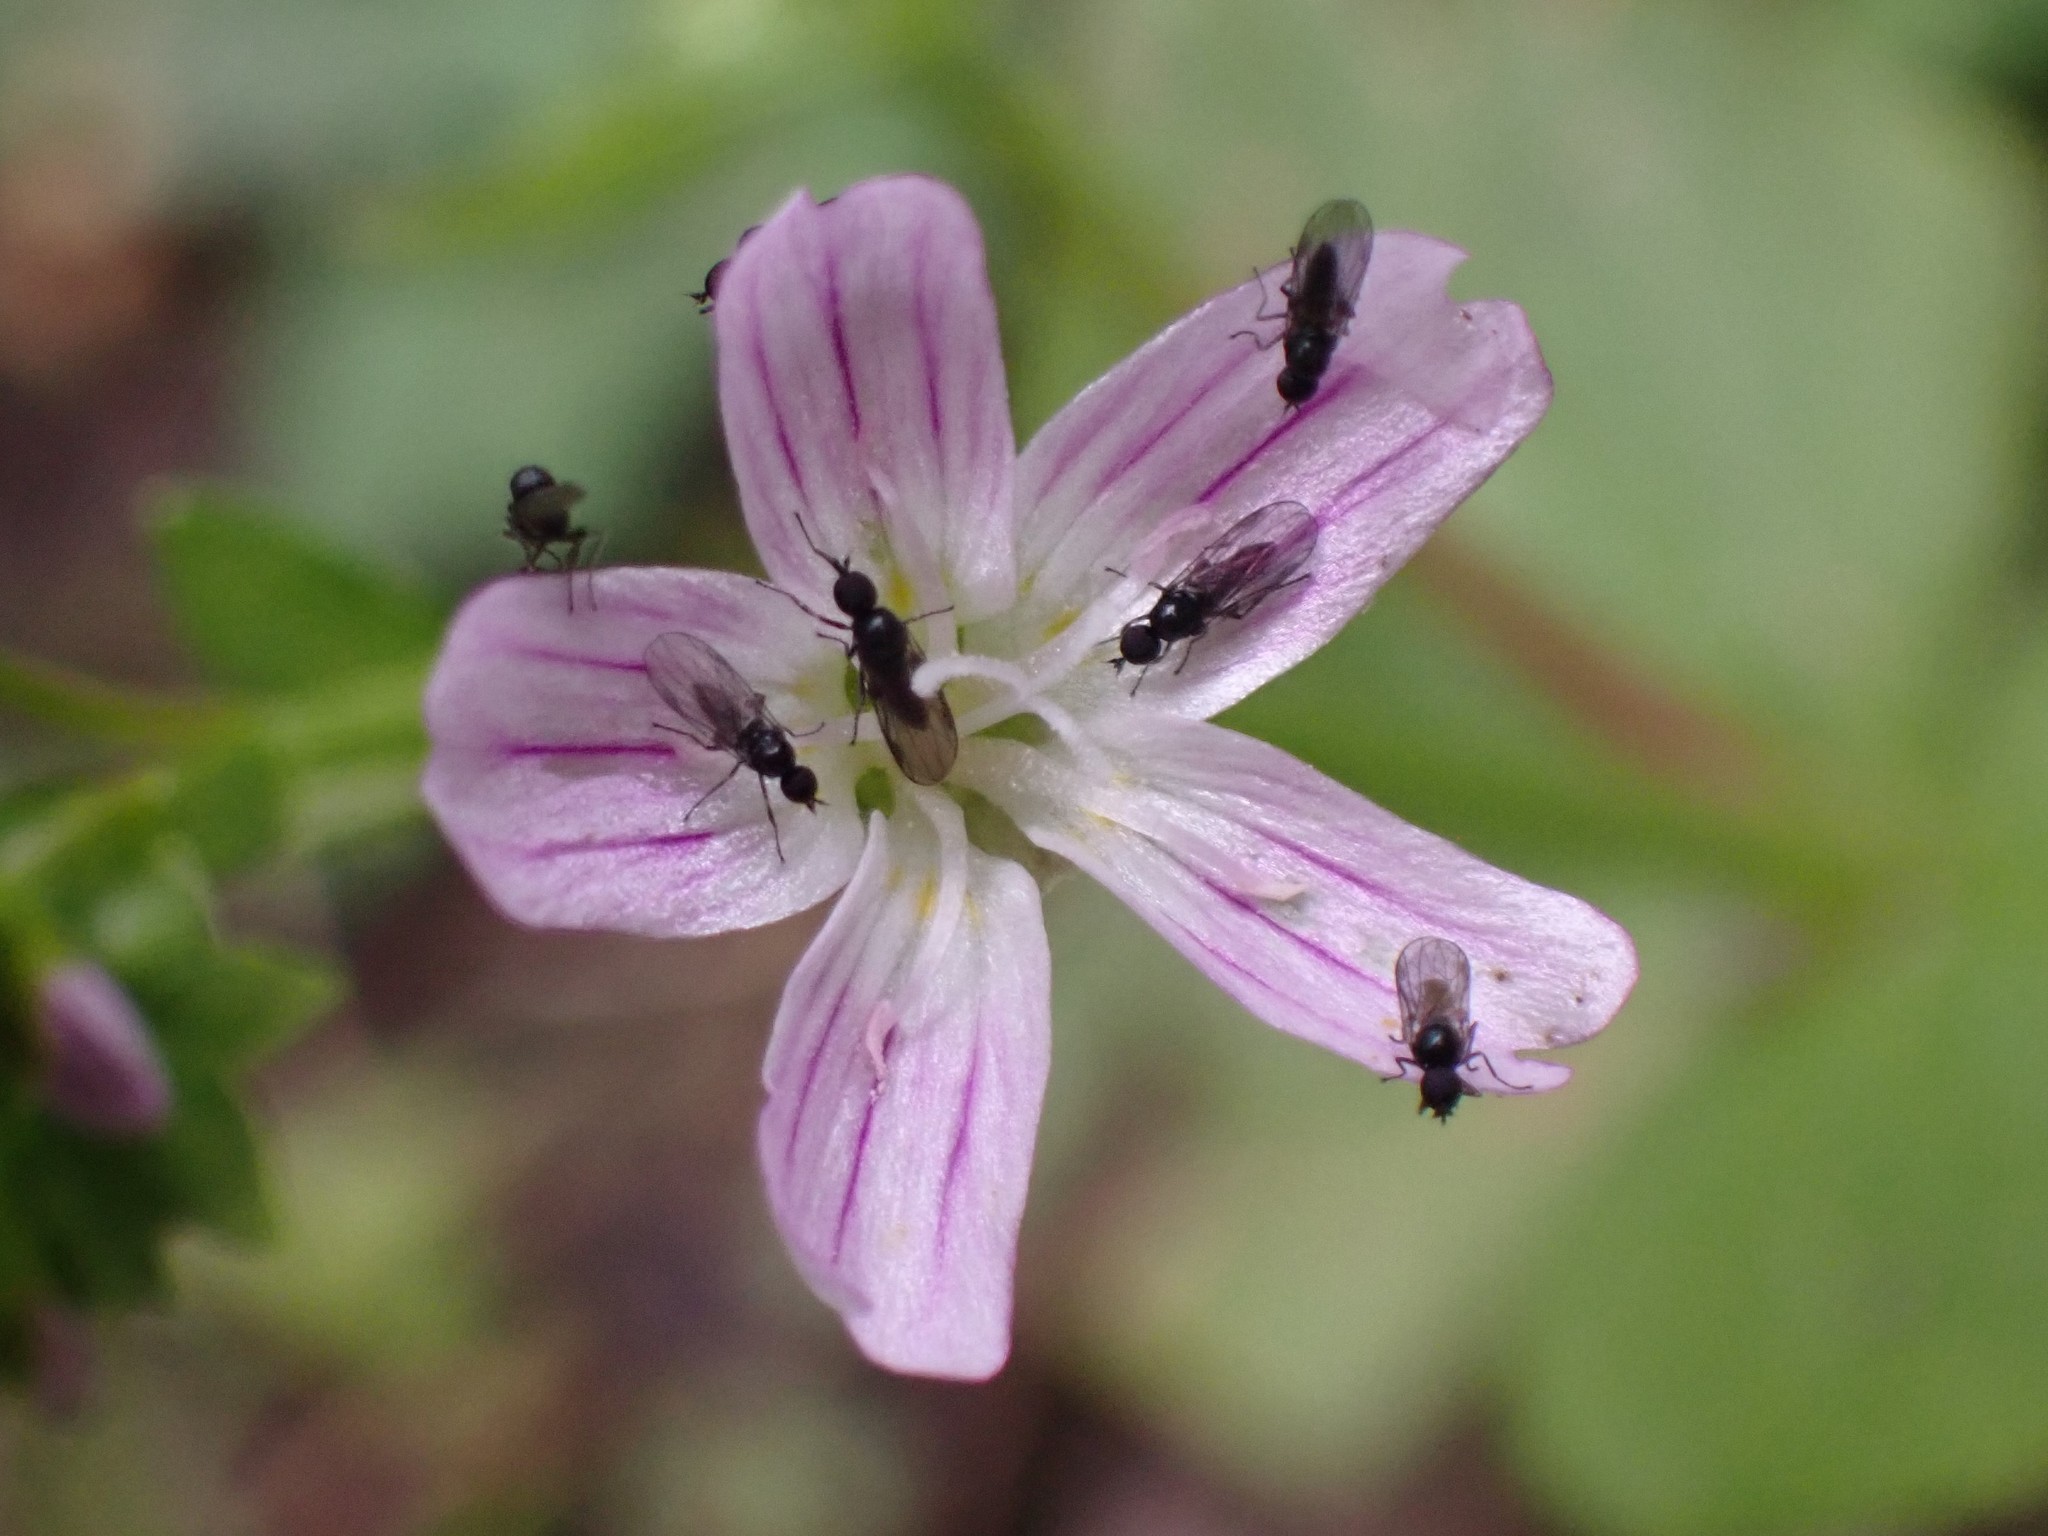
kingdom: Plantae
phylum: Tracheophyta
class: Magnoliopsida
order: Caryophyllales
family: Montiaceae
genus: Claytonia
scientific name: Claytonia sibirica
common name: Pink purslane
